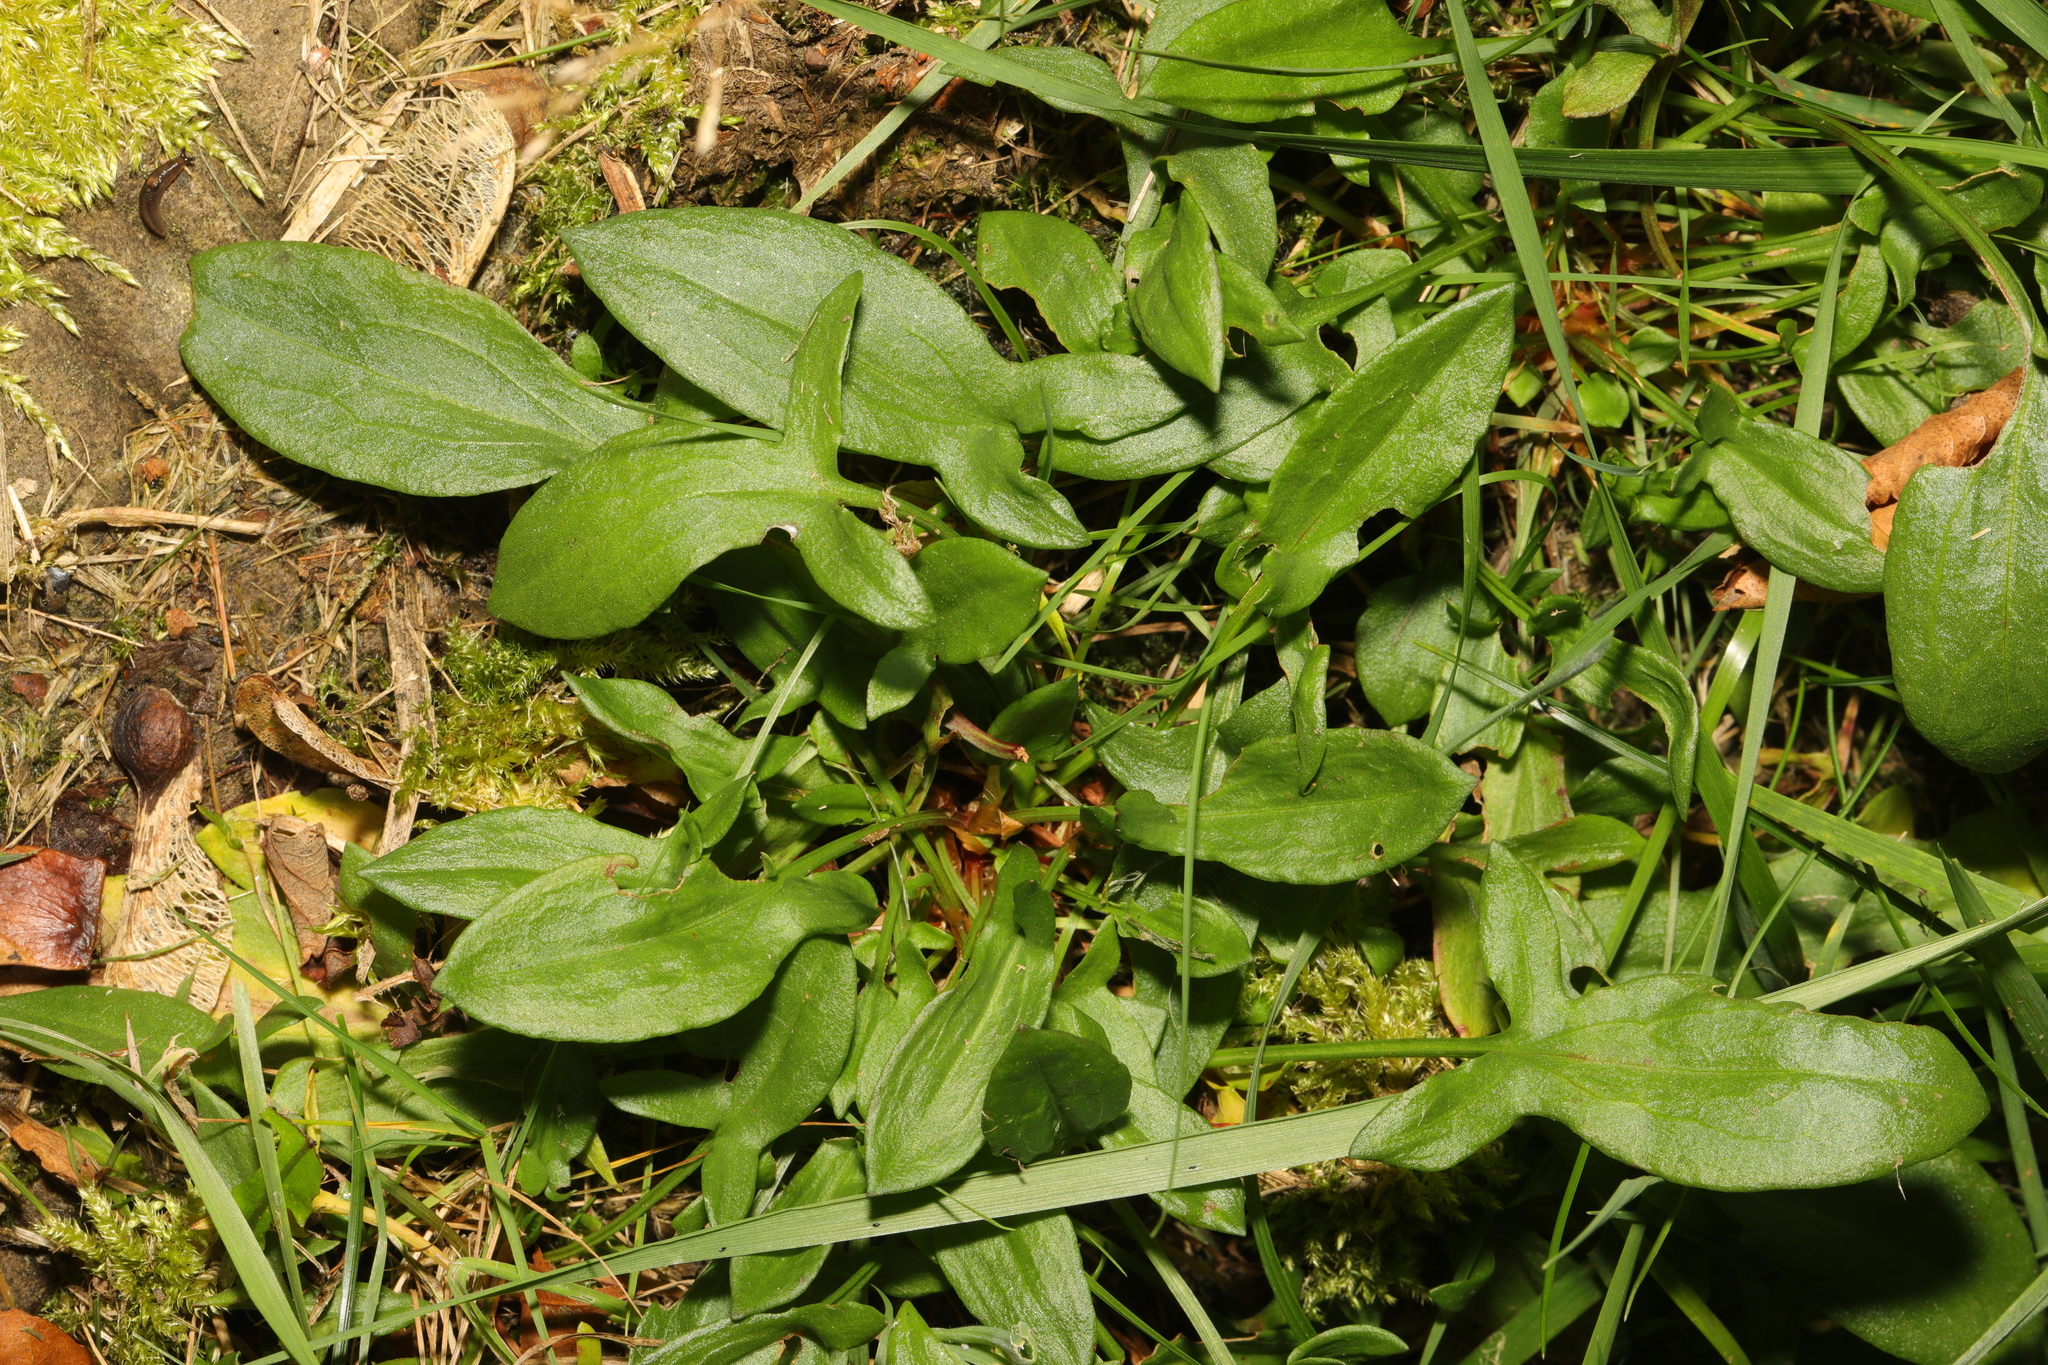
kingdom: Plantae
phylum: Tracheophyta
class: Magnoliopsida
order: Caryophyllales
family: Polygonaceae
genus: Rumex
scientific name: Rumex acetosella
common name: Common sheep sorrel
